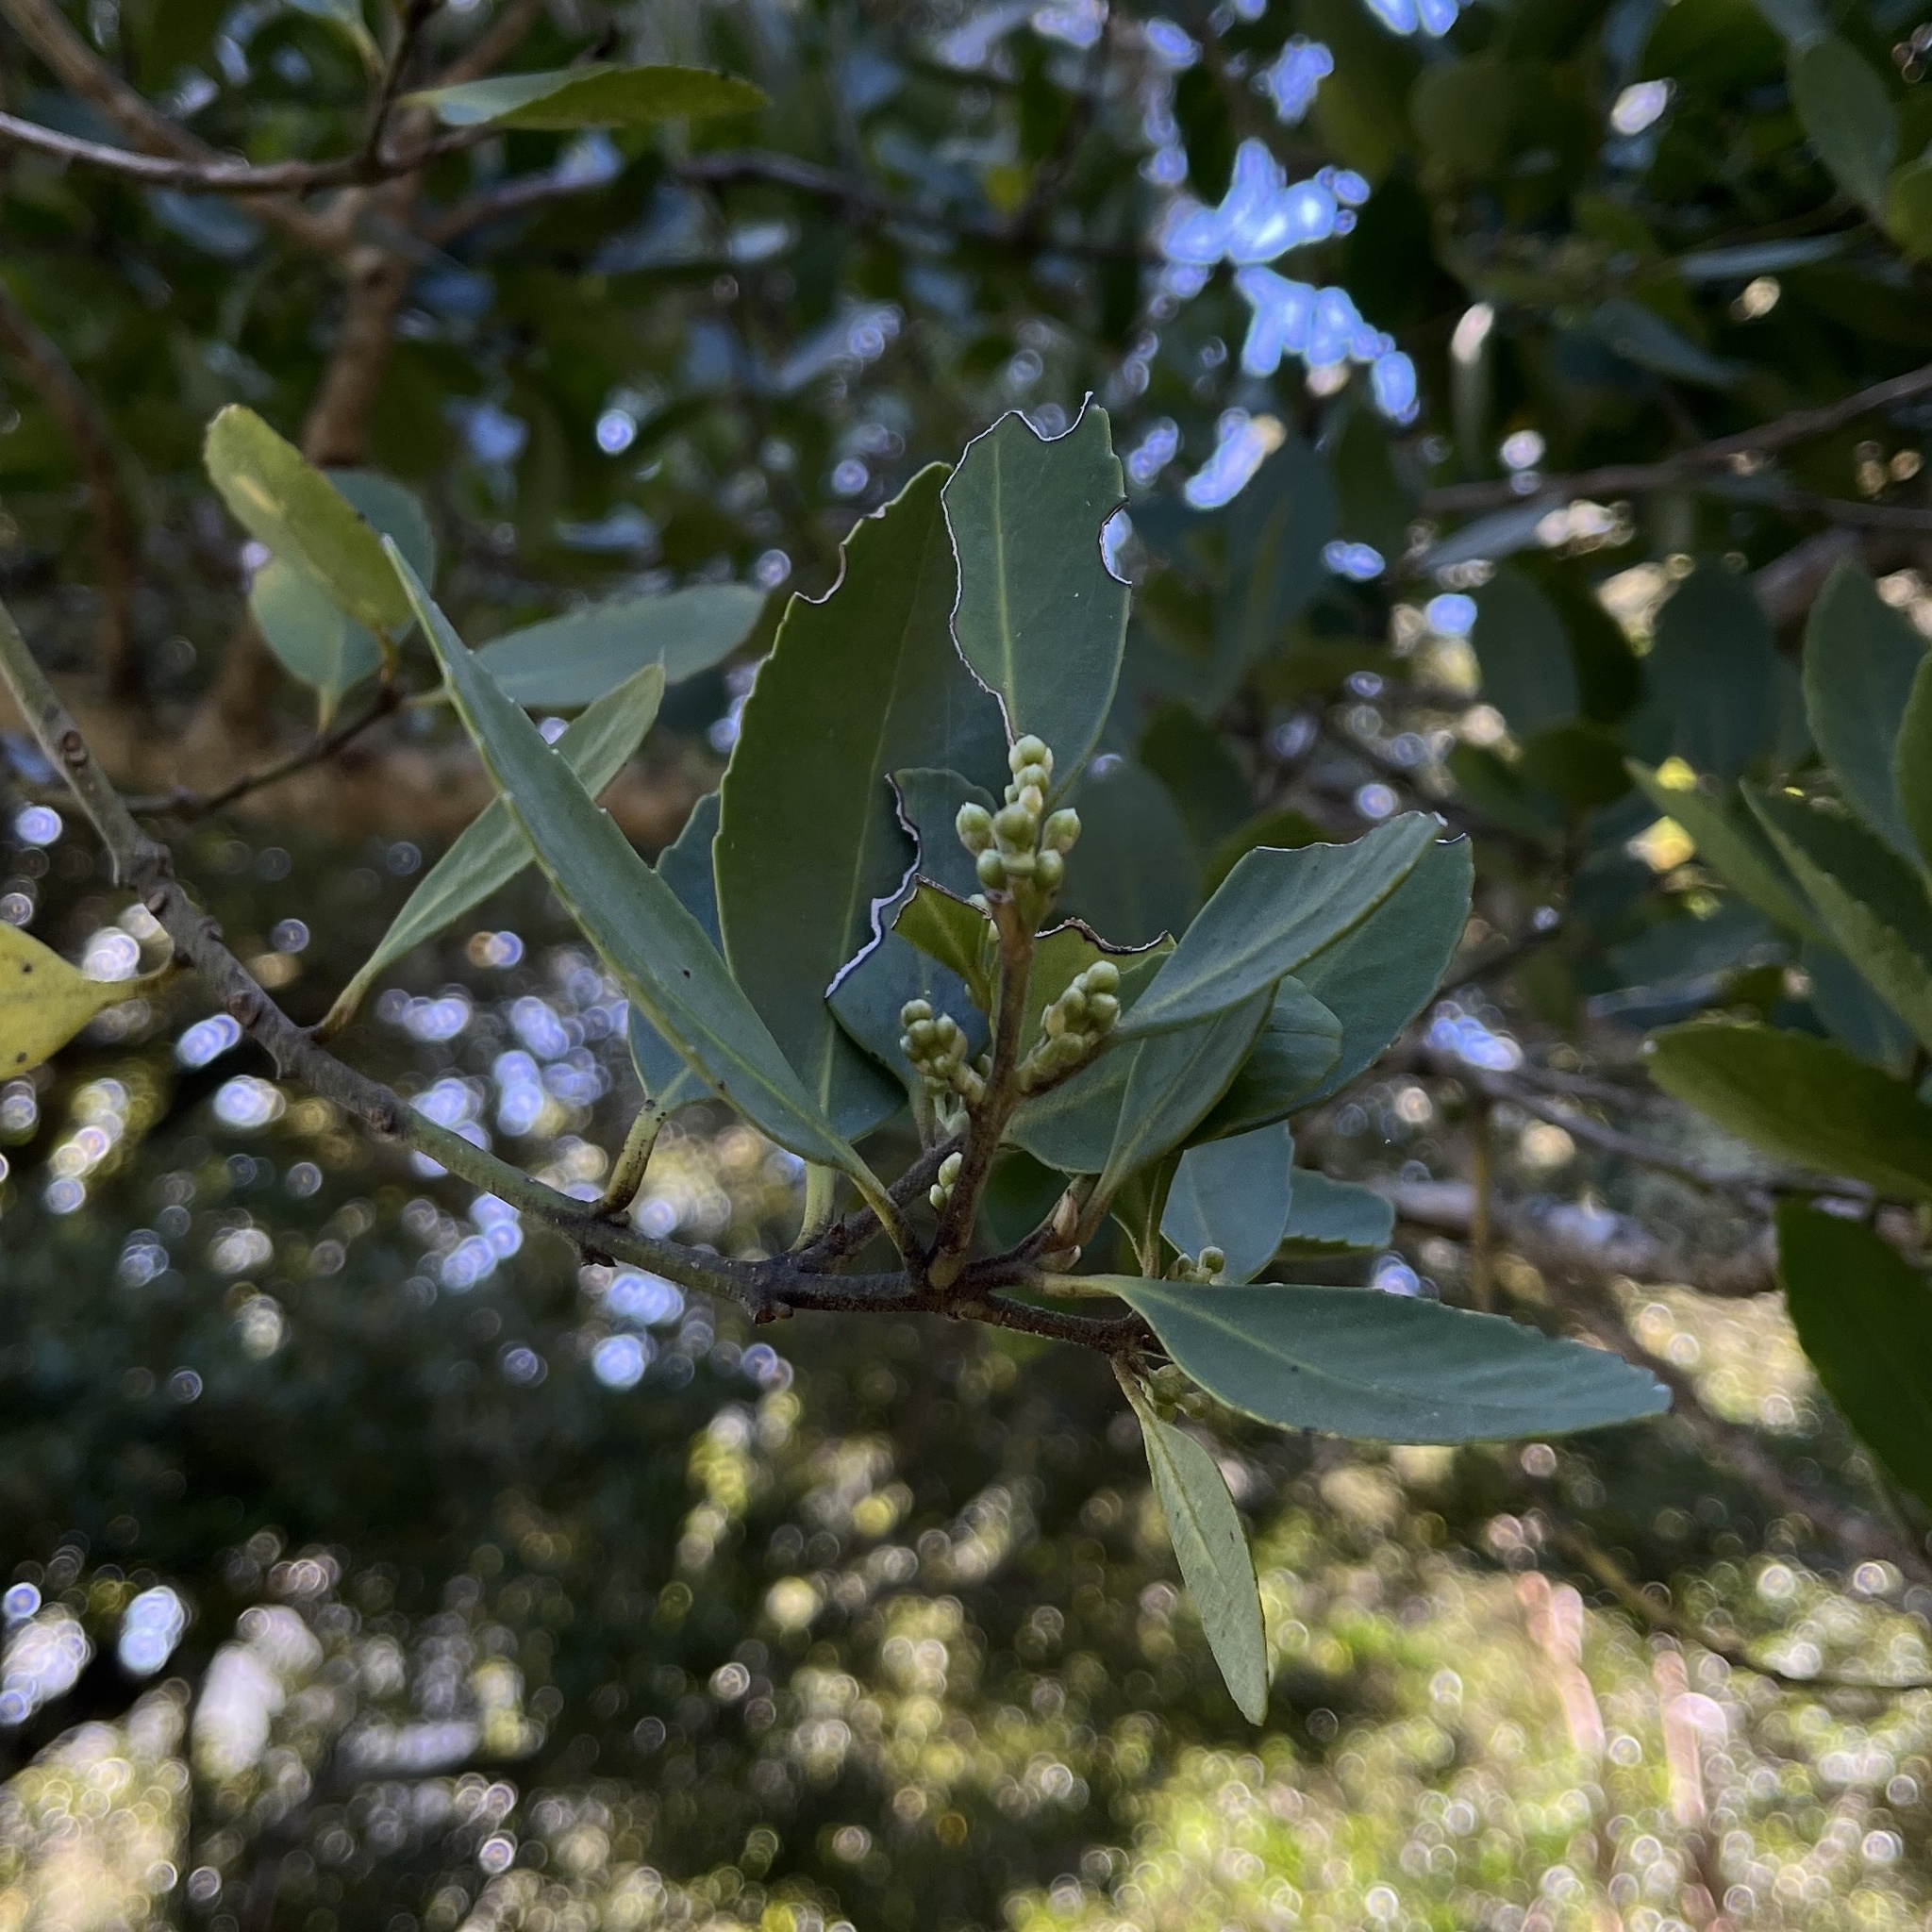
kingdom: Plantae
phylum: Tracheophyta
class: Magnoliopsida
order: Laurales
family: Atherospermataceae
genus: Laurelia
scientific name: Laurelia sempervirens
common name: Chilean laurel
